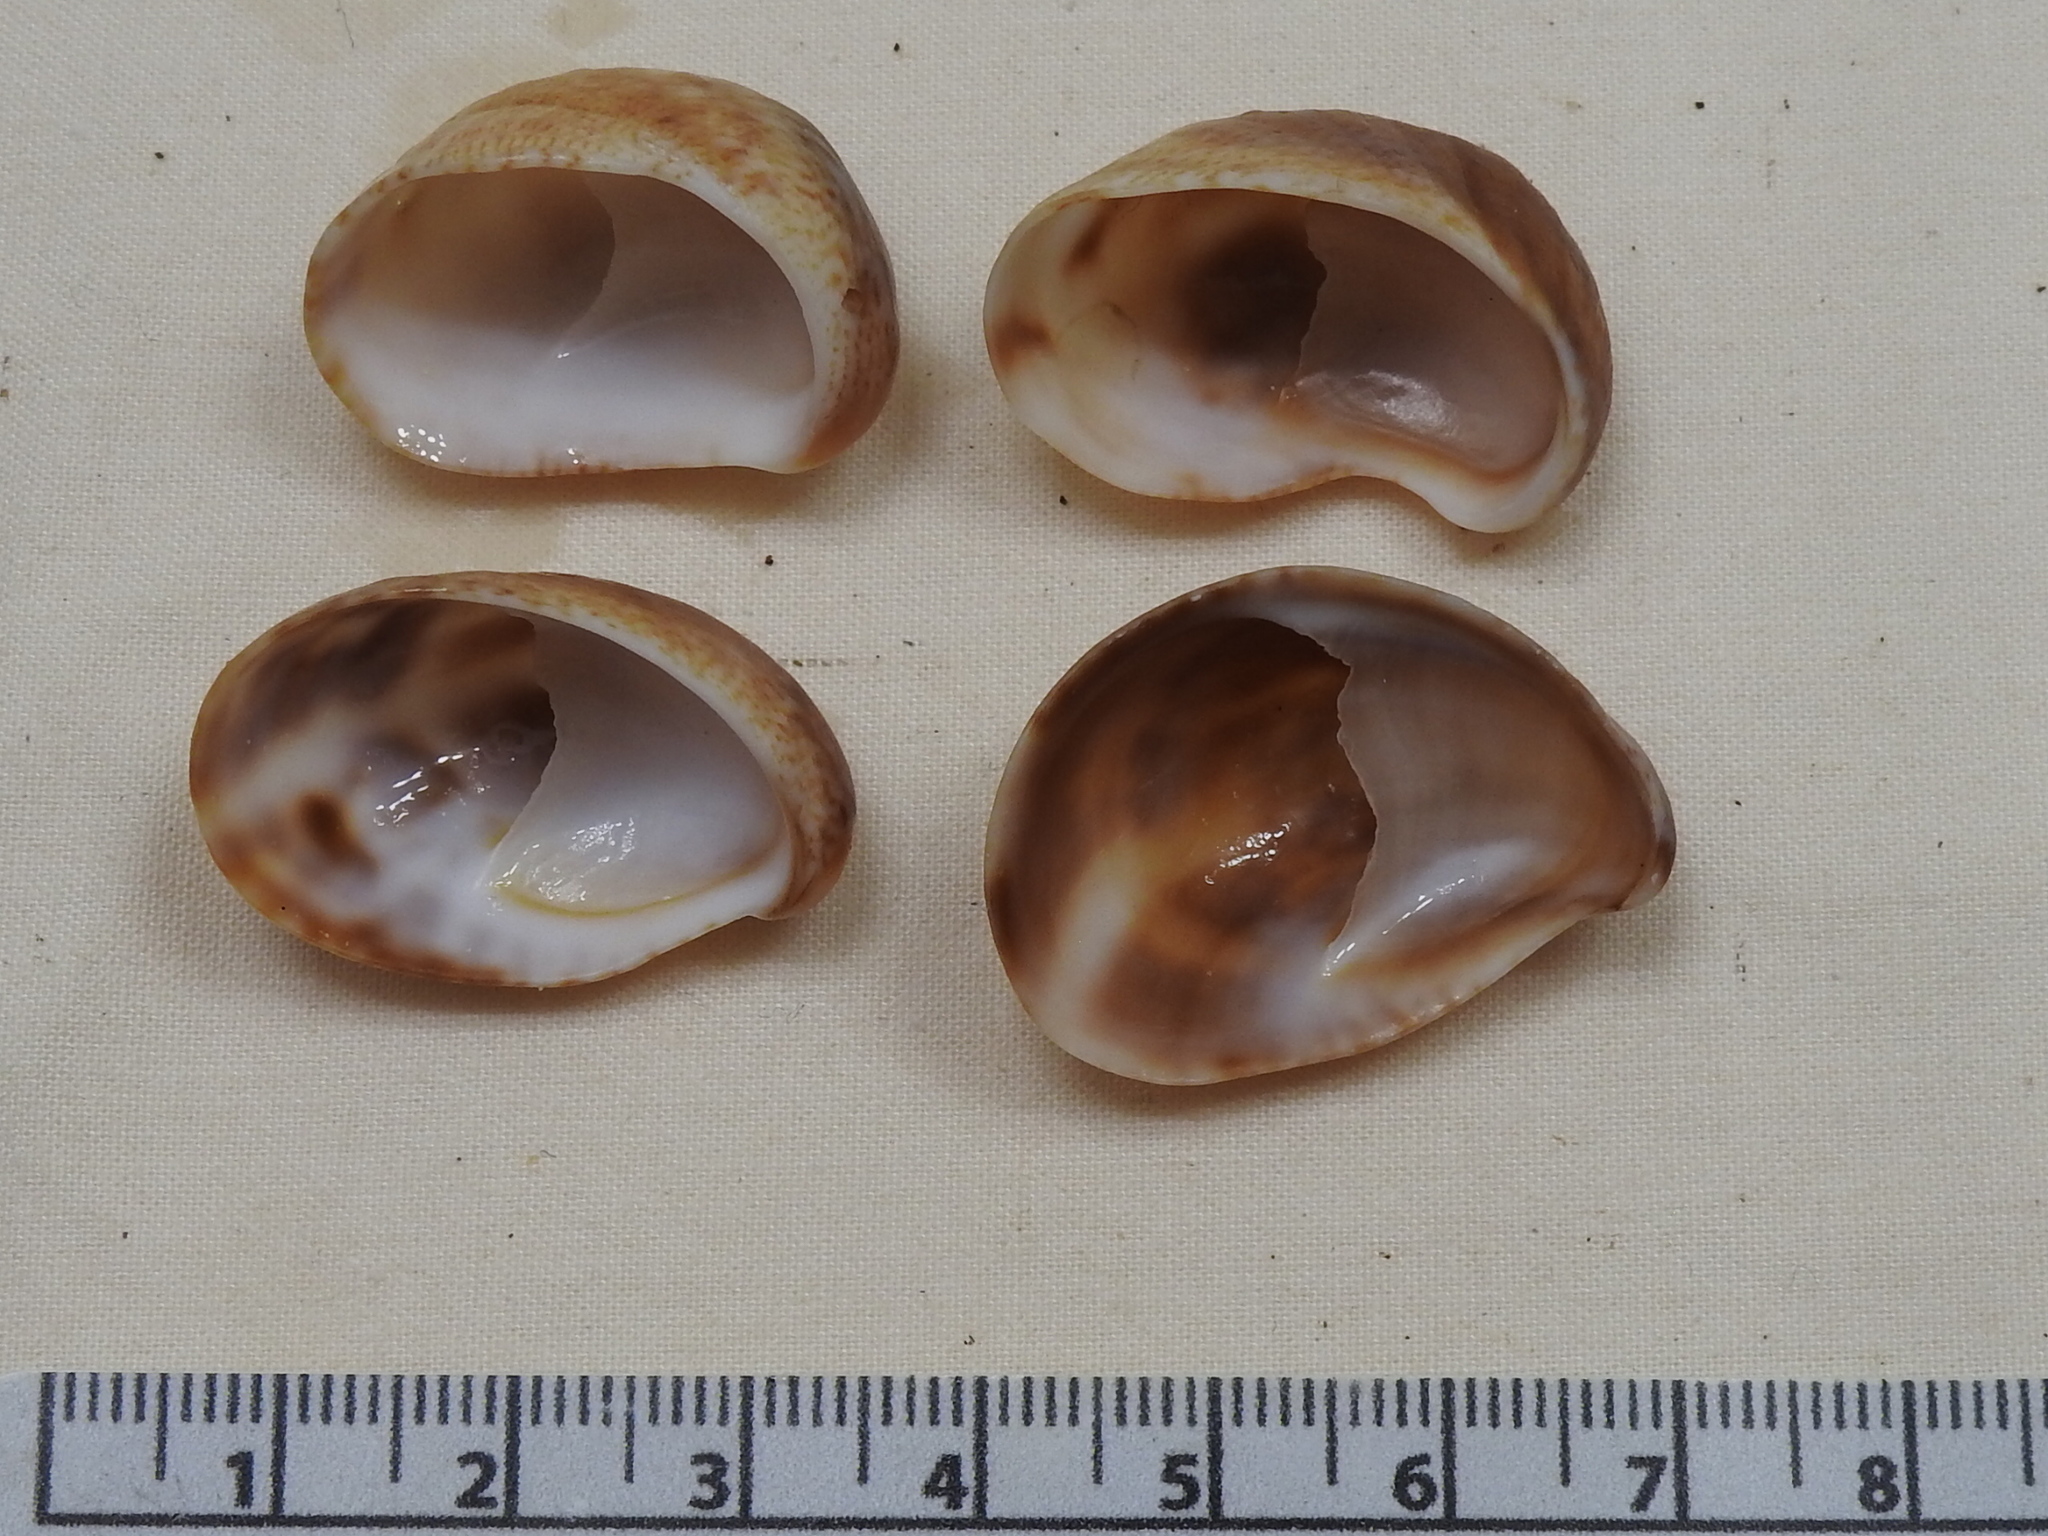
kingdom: Animalia
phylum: Mollusca
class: Gastropoda
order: Littorinimorpha
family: Calyptraeidae
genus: Crepidula
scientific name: Crepidula fornicata
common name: Slipper limpet
